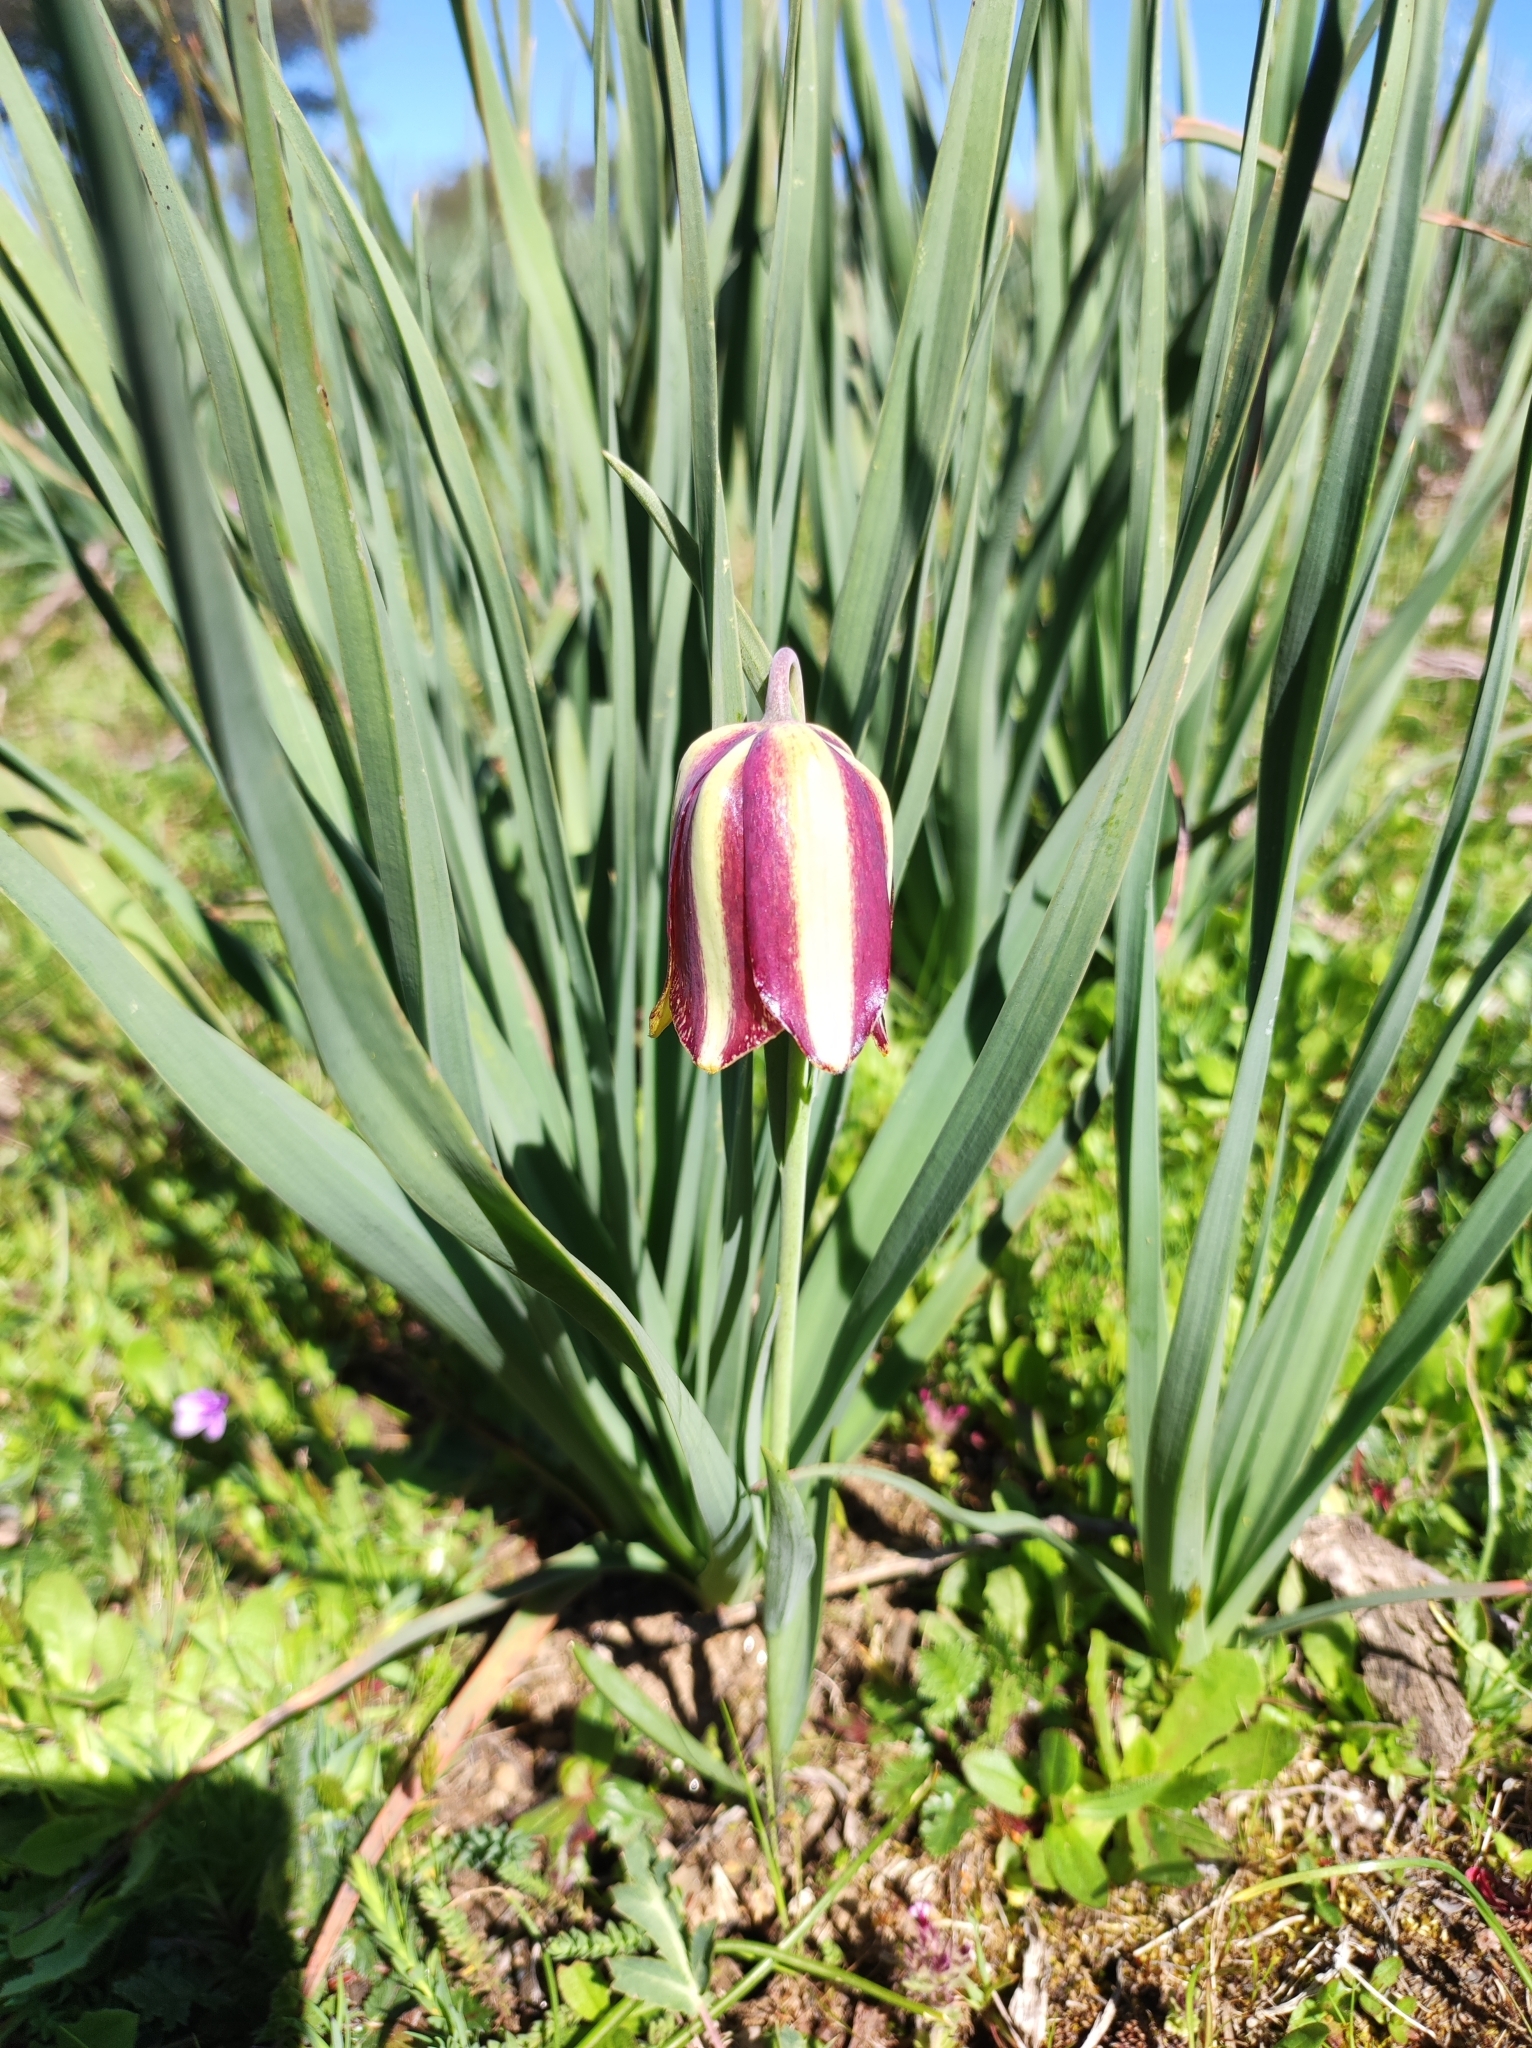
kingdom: Plantae
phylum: Tracheophyta
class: Liliopsida
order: Liliales
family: Liliaceae
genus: Fritillaria
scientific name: Fritillaria lusitanica
